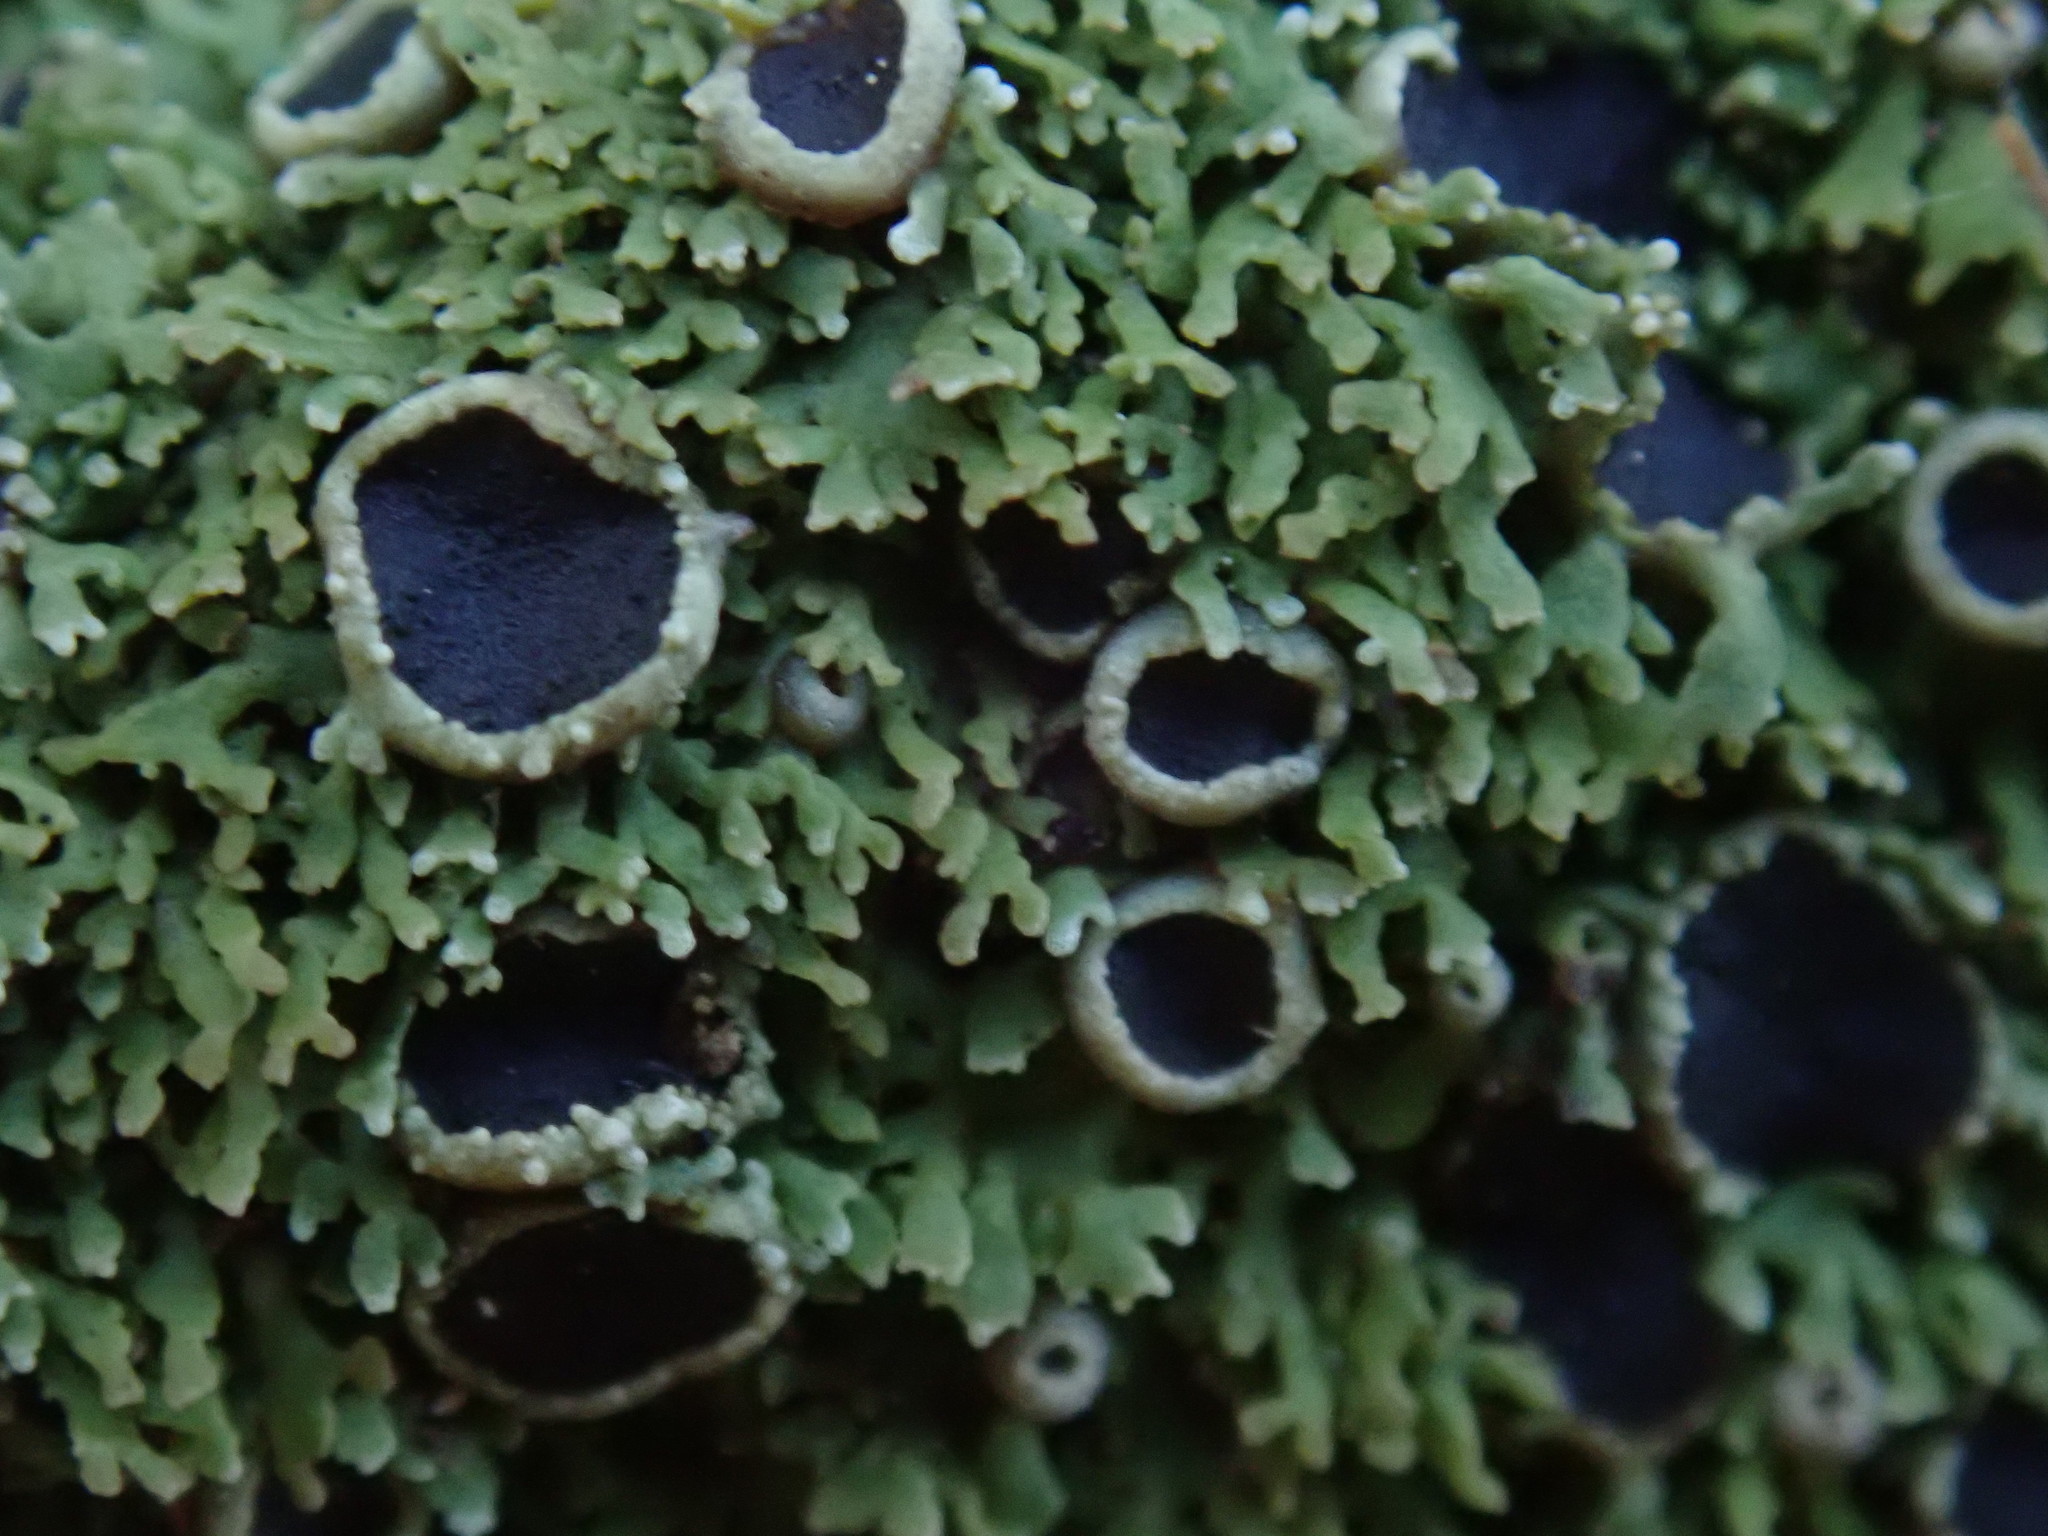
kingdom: Fungi
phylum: Ascomycota
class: Lecanoromycetes
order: Caliciales
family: Physciaceae
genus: Kurokawia
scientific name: Kurokawia palmulata
